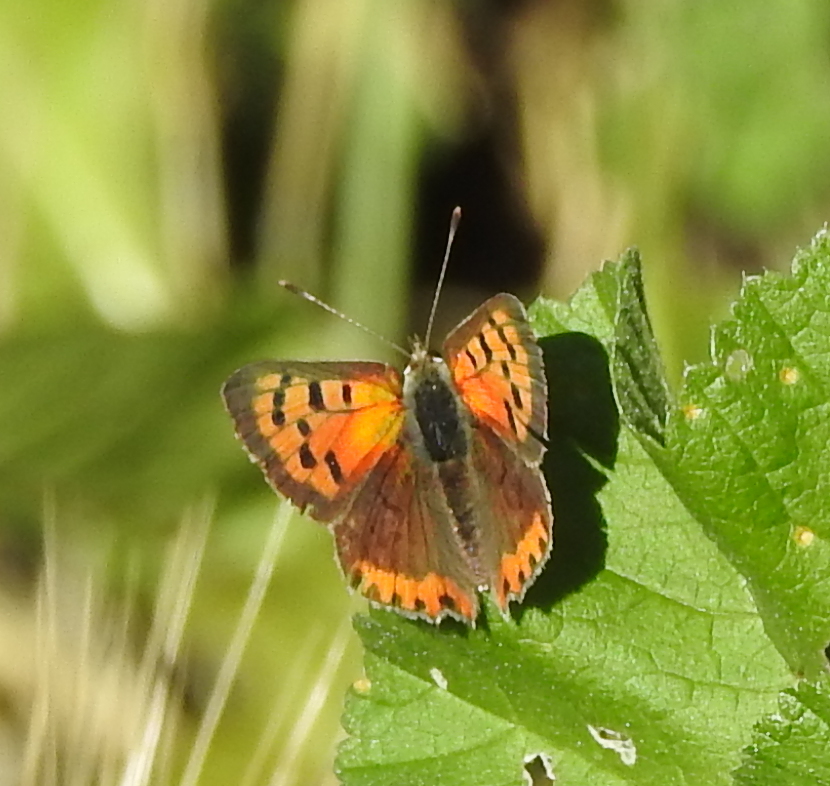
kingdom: Animalia
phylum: Arthropoda
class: Insecta
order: Lepidoptera
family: Lycaenidae
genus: Lycaena
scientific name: Lycaena phlaeas
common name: Small copper
